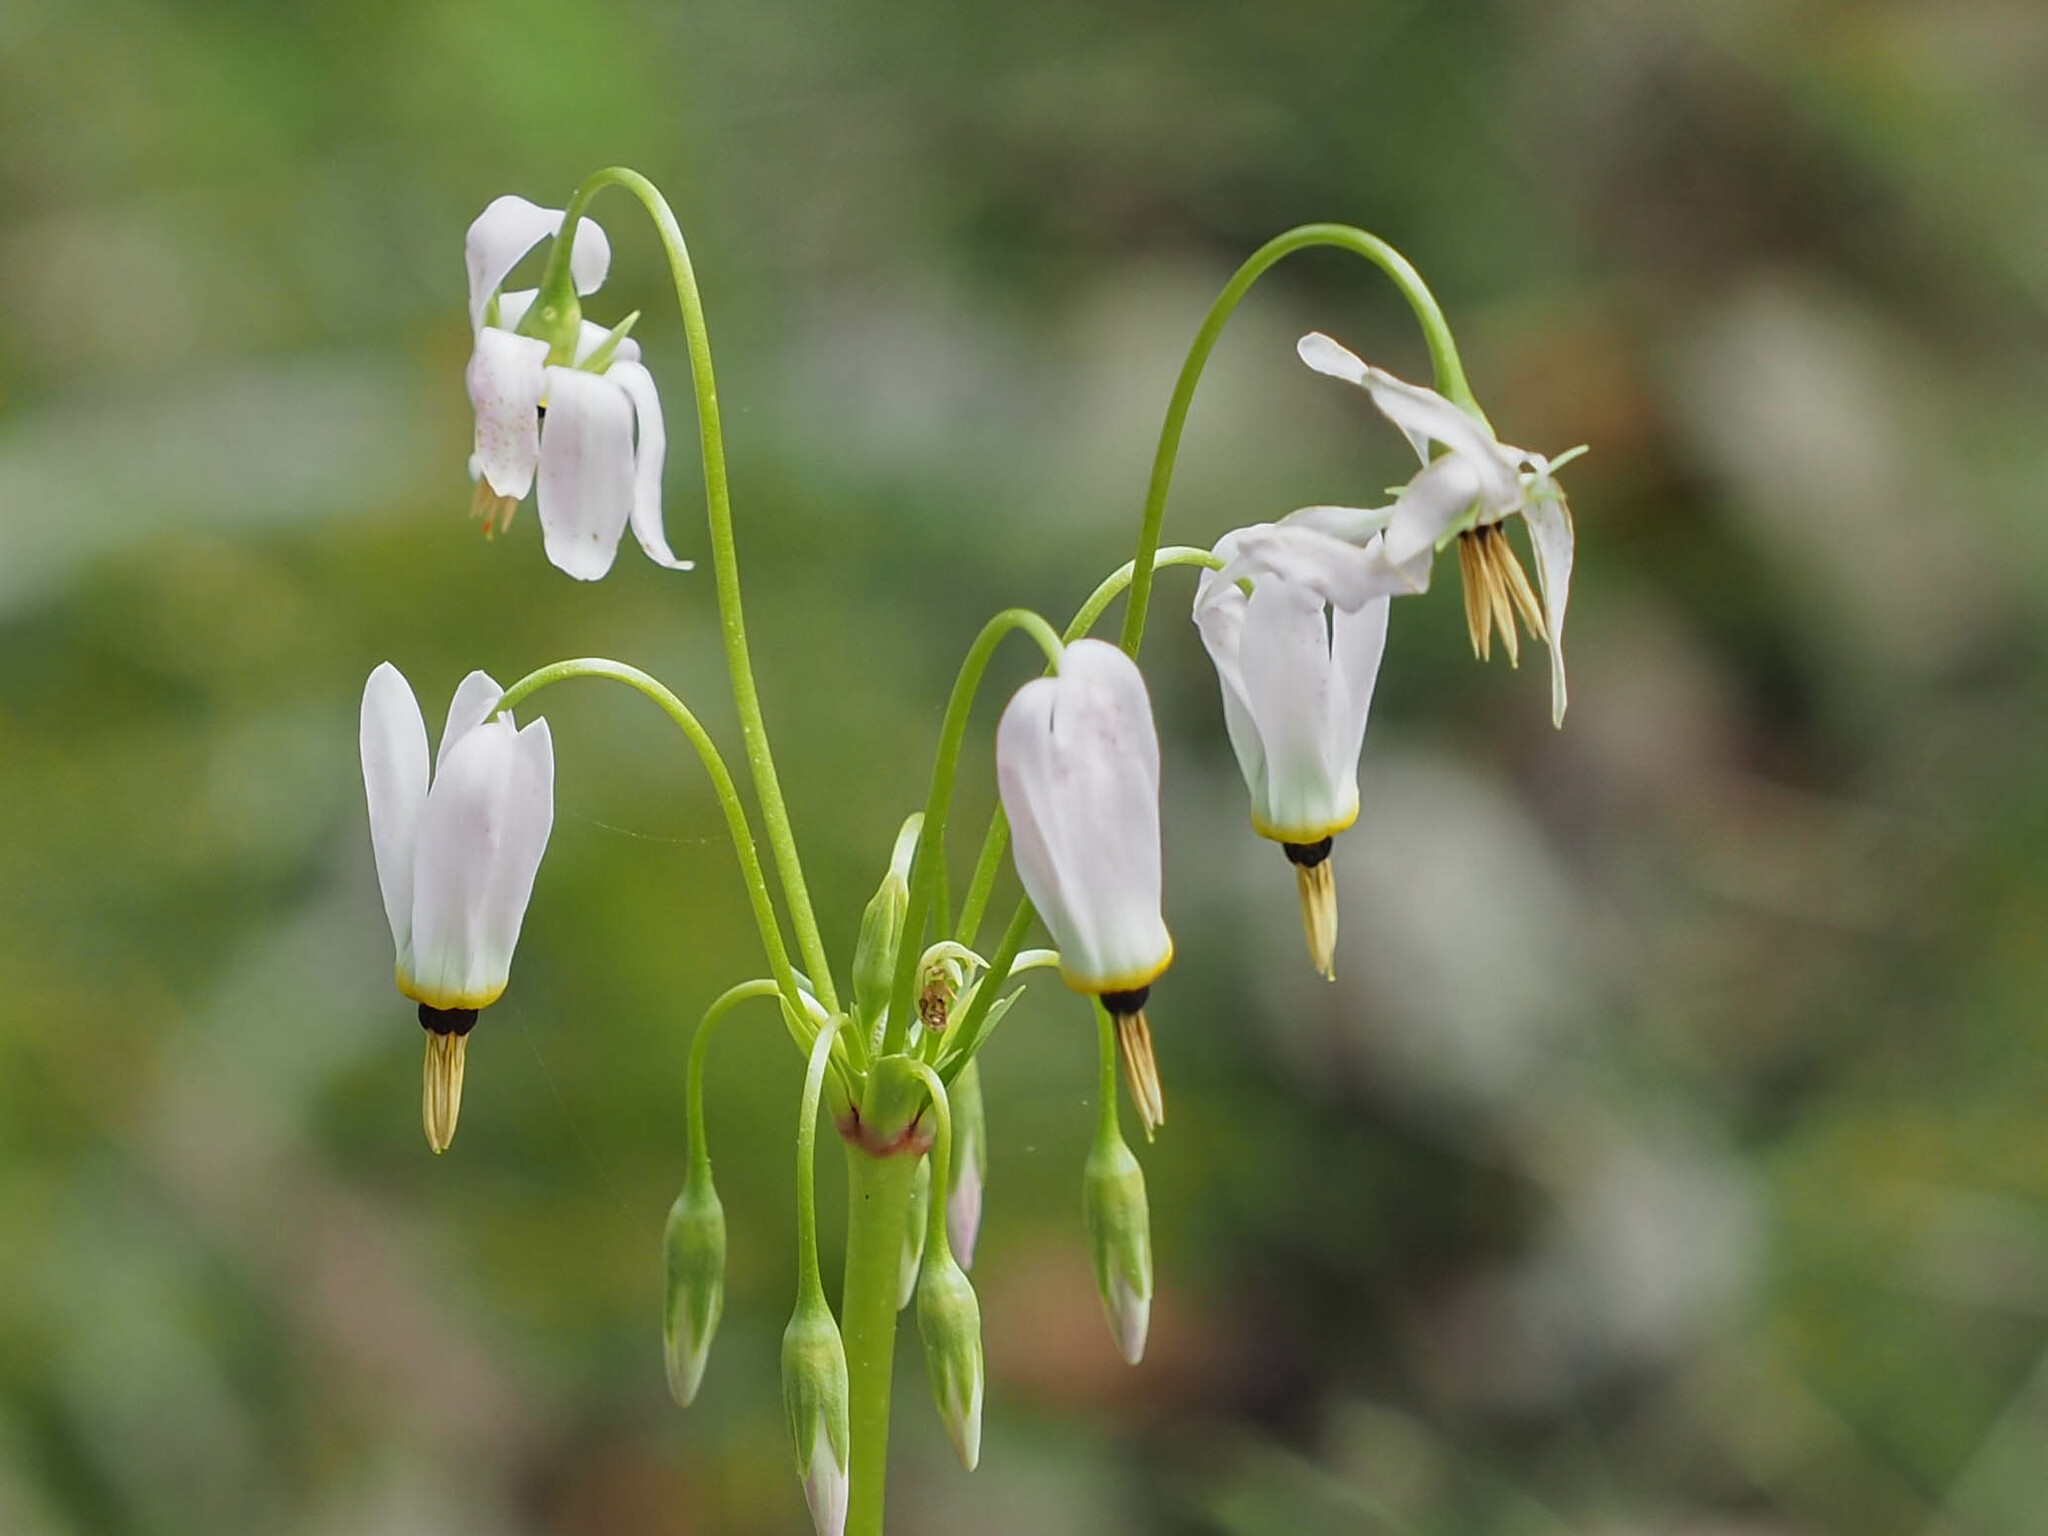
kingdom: Plantae
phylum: Tracheophyta
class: Magnoliopsida
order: Ericales
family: Primulaceae
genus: Dodecatheon
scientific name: Dodecatheon meadia
